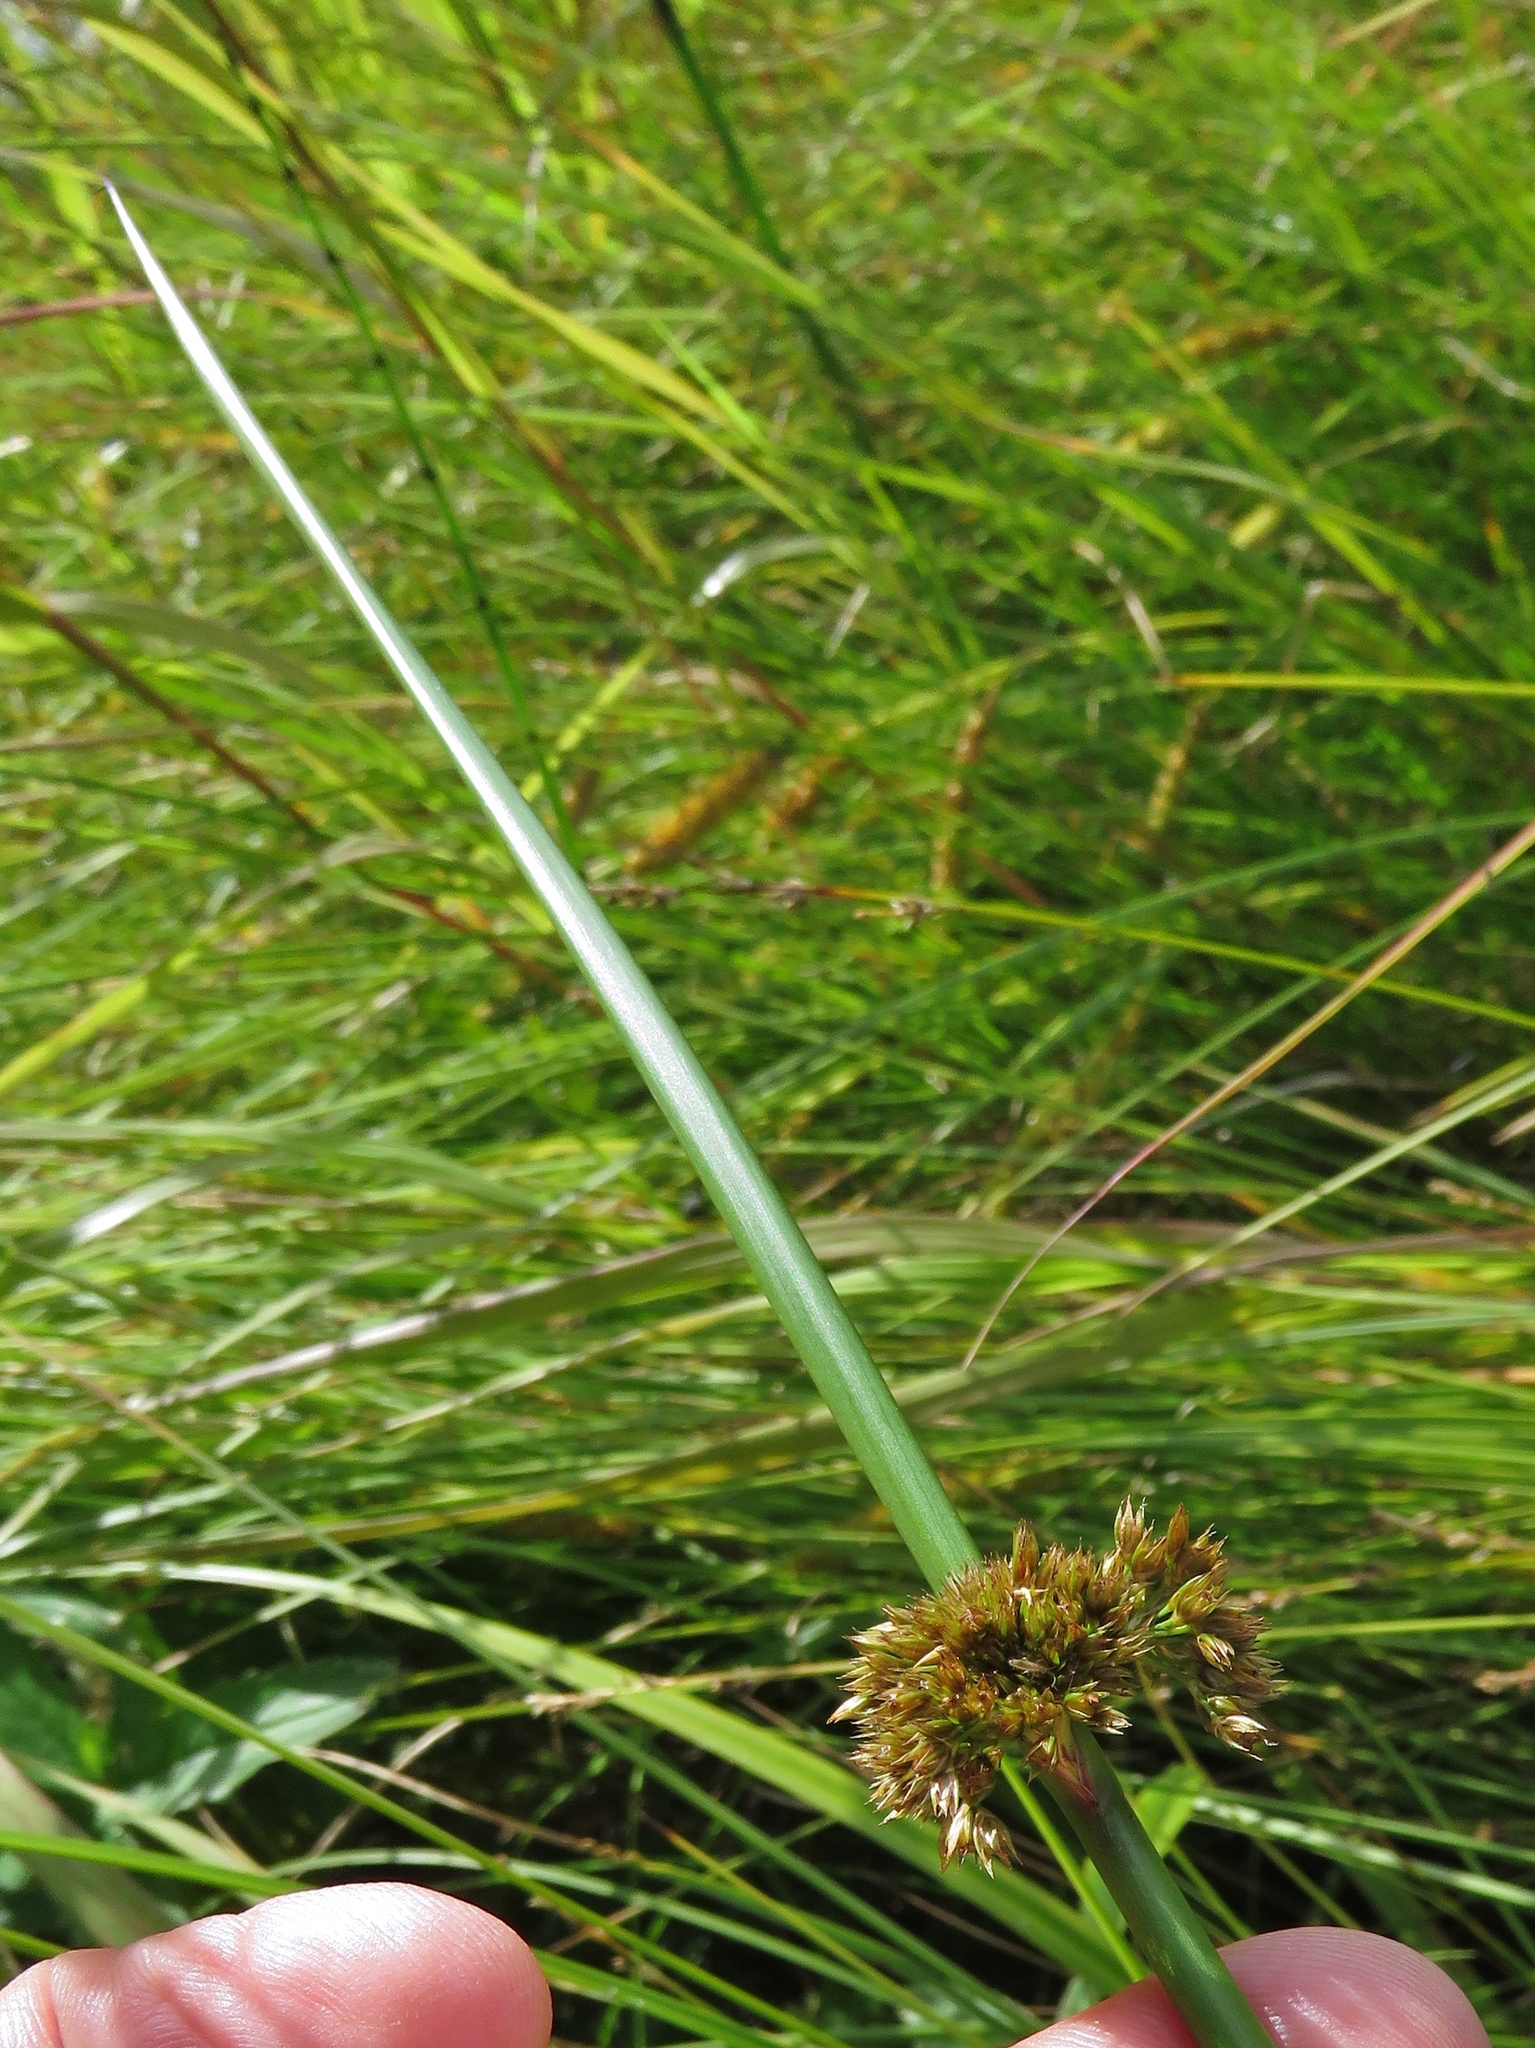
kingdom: Plantae
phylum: Tracheophyta
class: Liliopsida
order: Poales
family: Juncaceae
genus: Juncus
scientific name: Juncus effusus
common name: Soft rush
